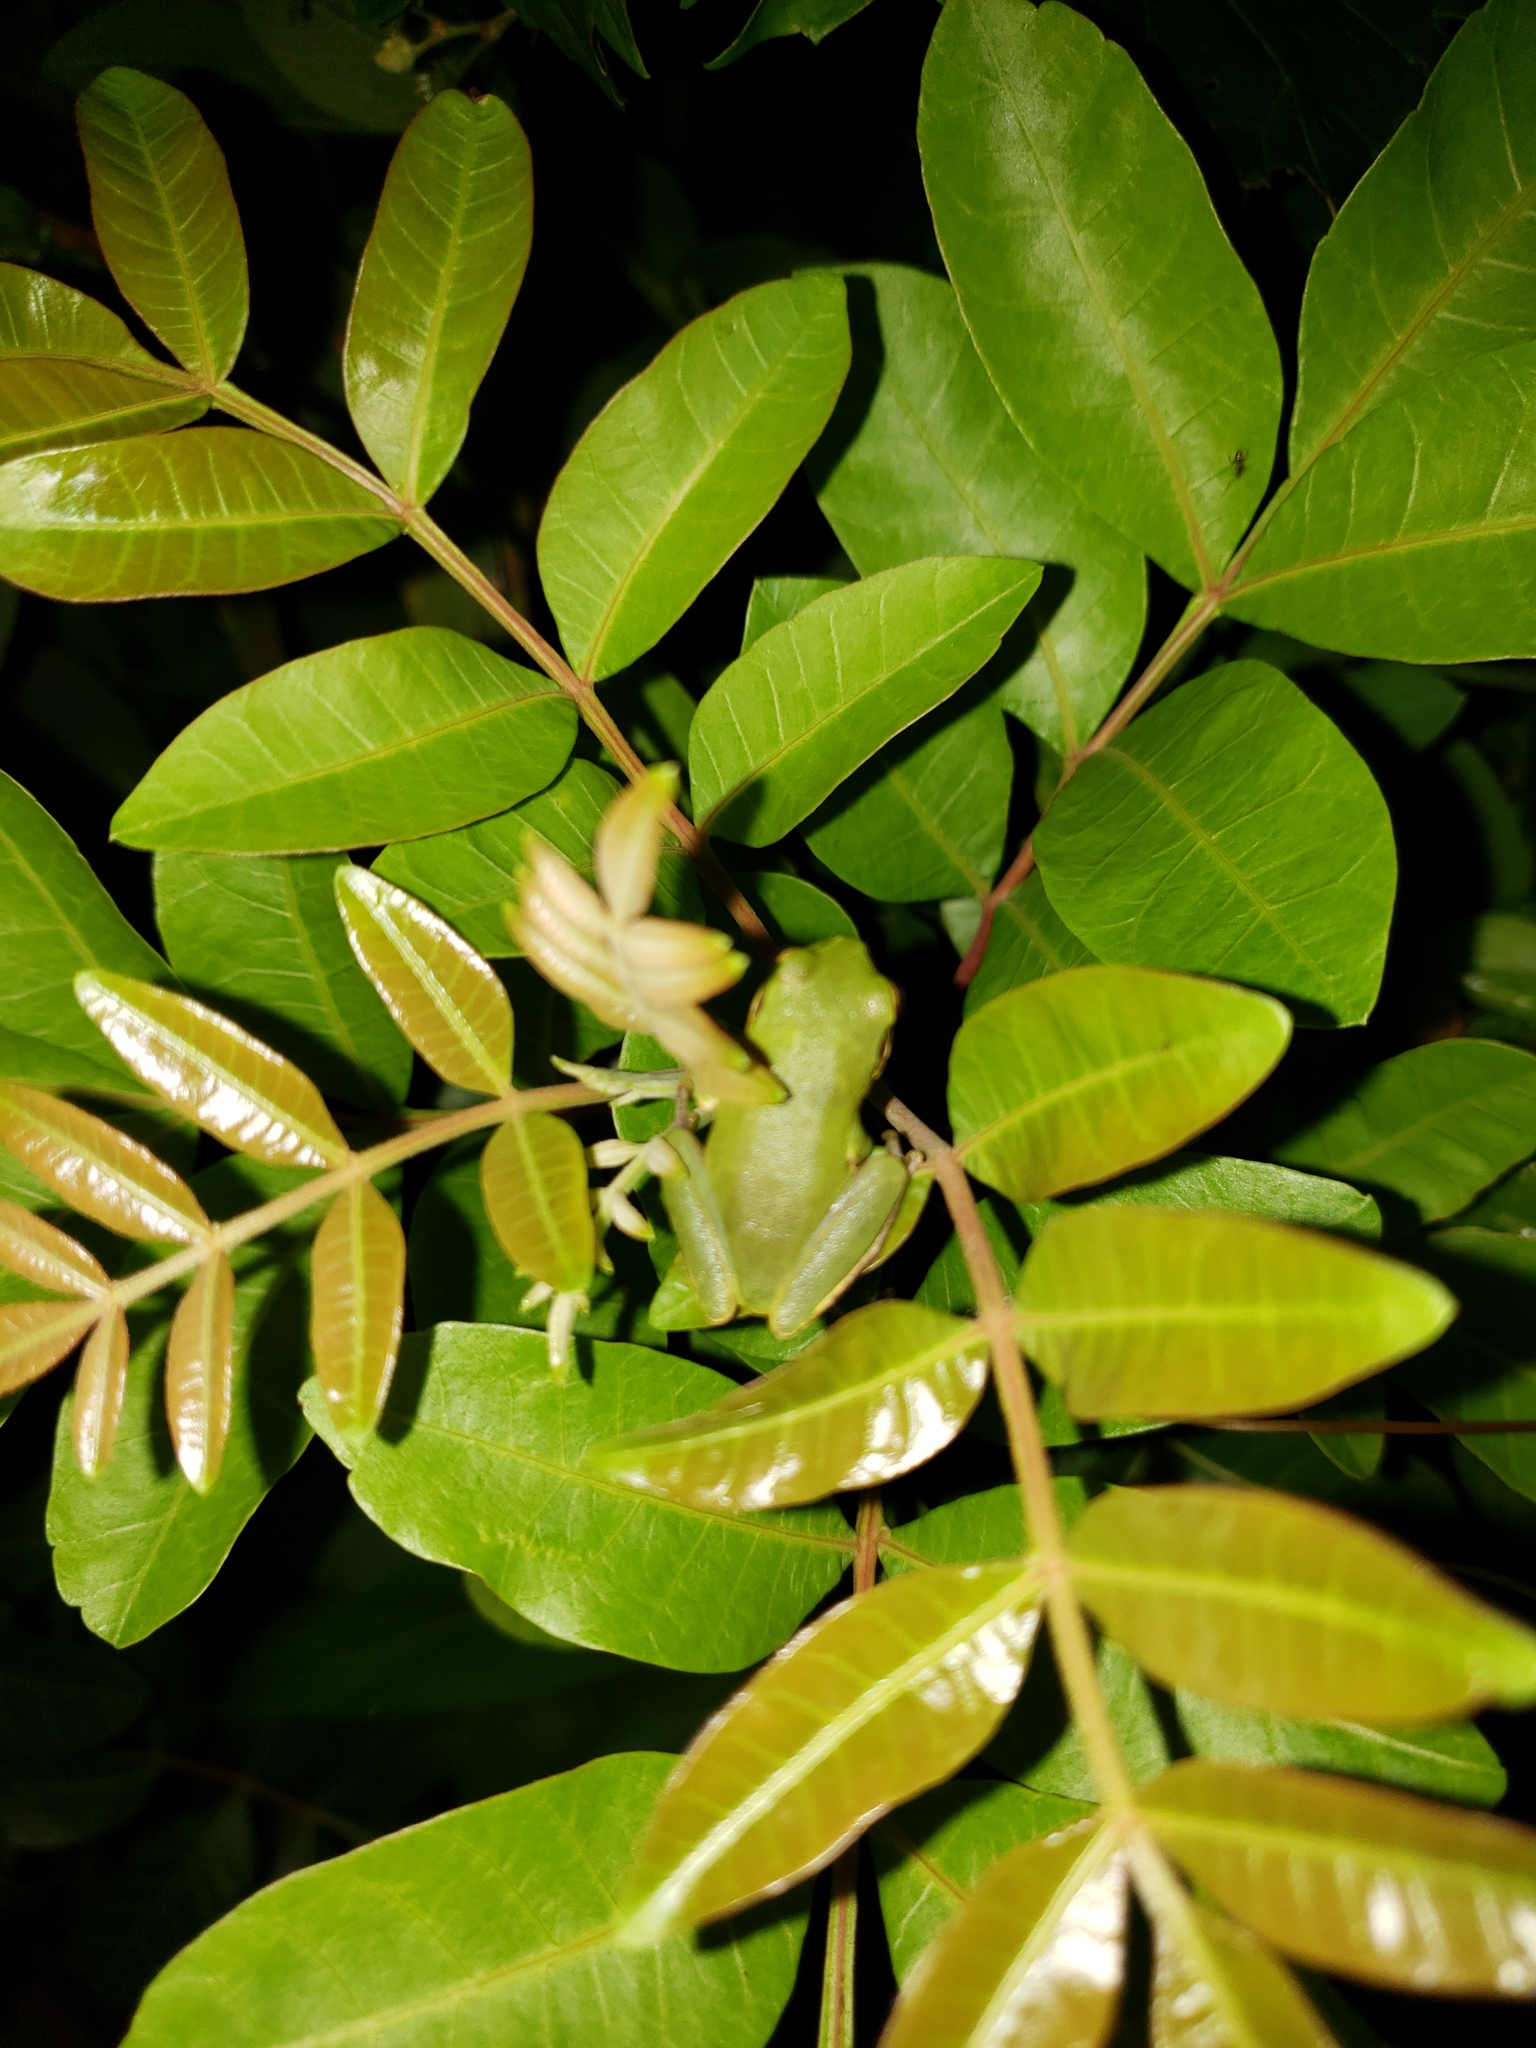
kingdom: Plantae
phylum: Tracheophyta
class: Magnoliopsida
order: Sapindales
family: Anacardiaceae
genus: Schinus
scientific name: Schinus terebinthifolia
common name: Brazilian peppertree
